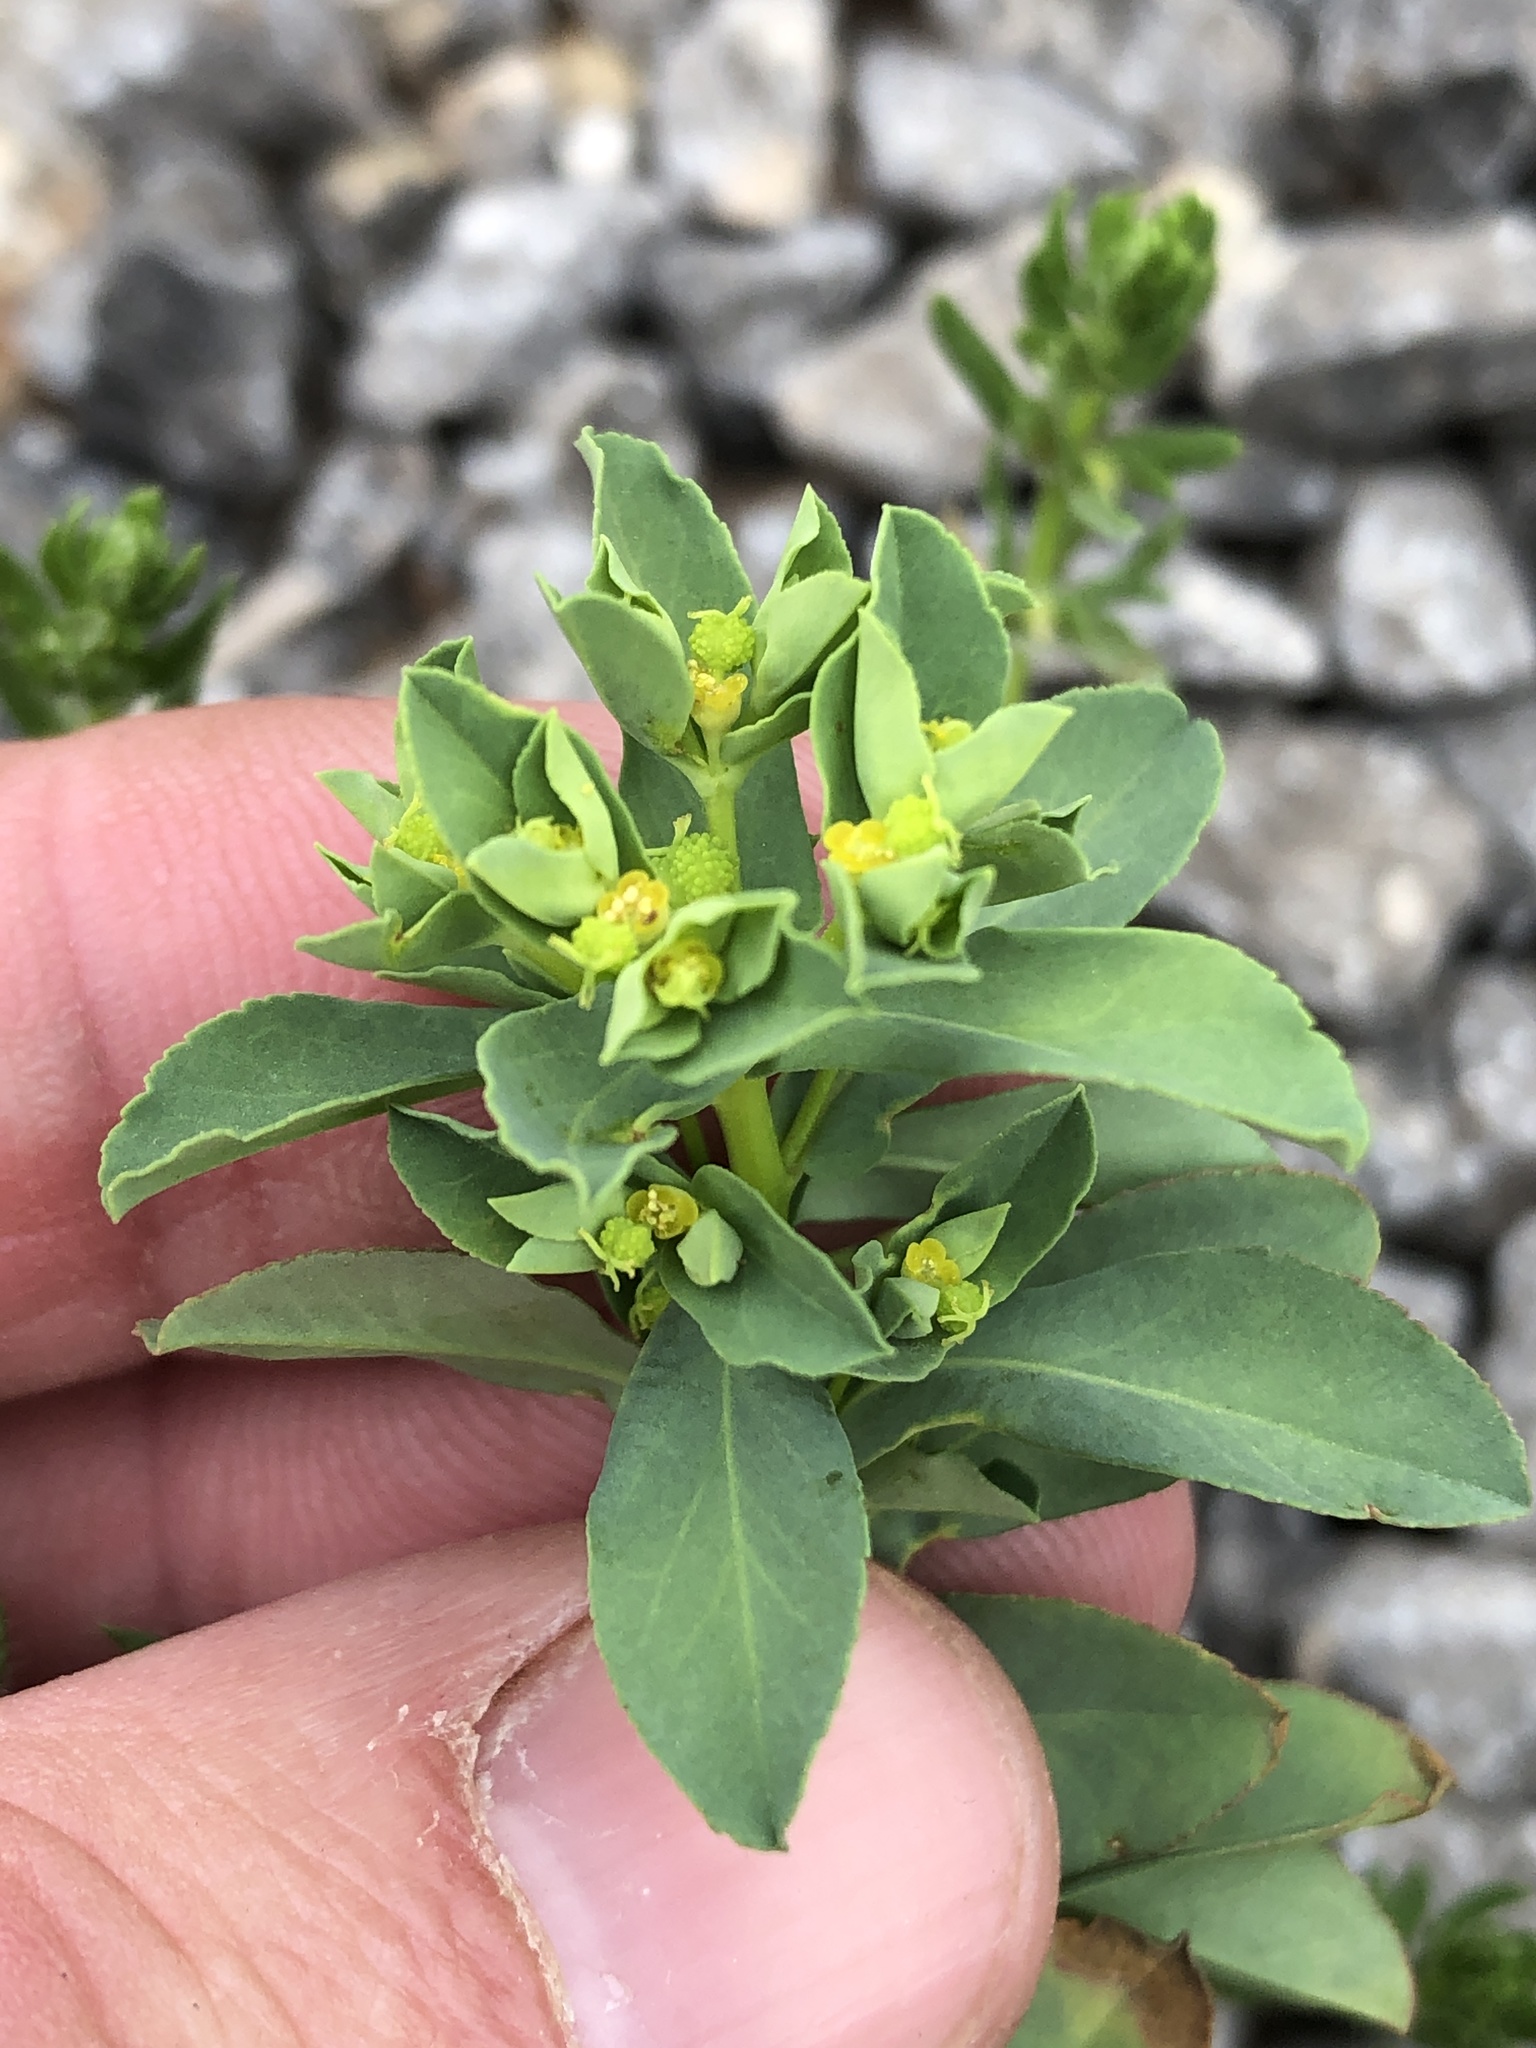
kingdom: Plantae
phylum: Tracheophyta
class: Magnoliopsida
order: Malpighiales
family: Euphorbiaceae
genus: Euphorbia
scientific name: Euphorbia spathulata
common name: Blunt spurge
